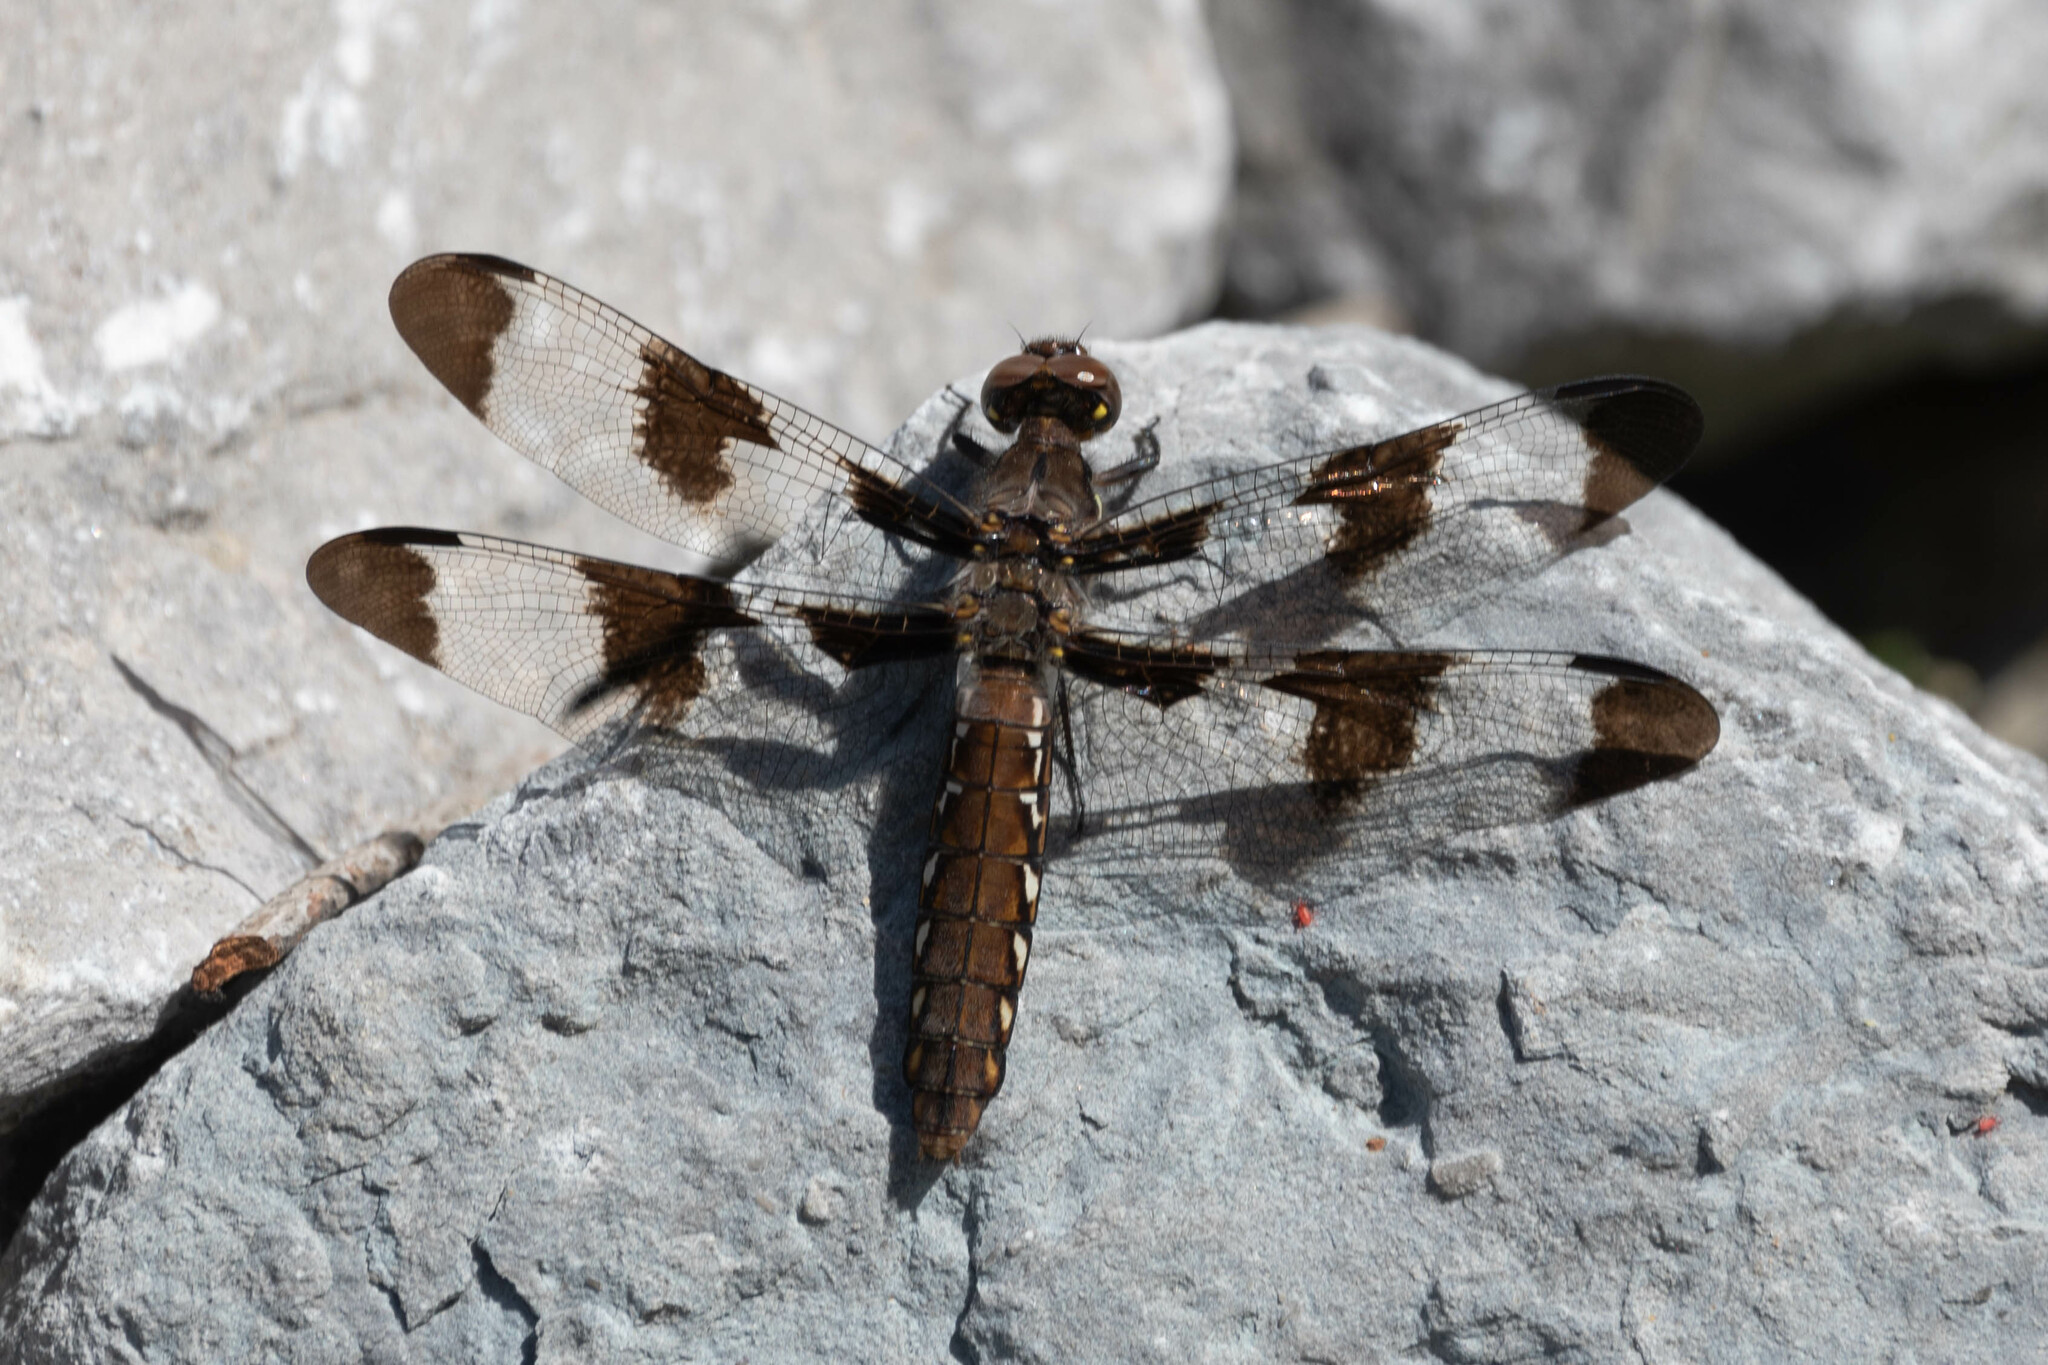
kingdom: Animalia
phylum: Arthropoda
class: Insecta
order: Odonata
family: Libellulidae
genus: Plathemis
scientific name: Plathemis lydia
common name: Common whitetail
